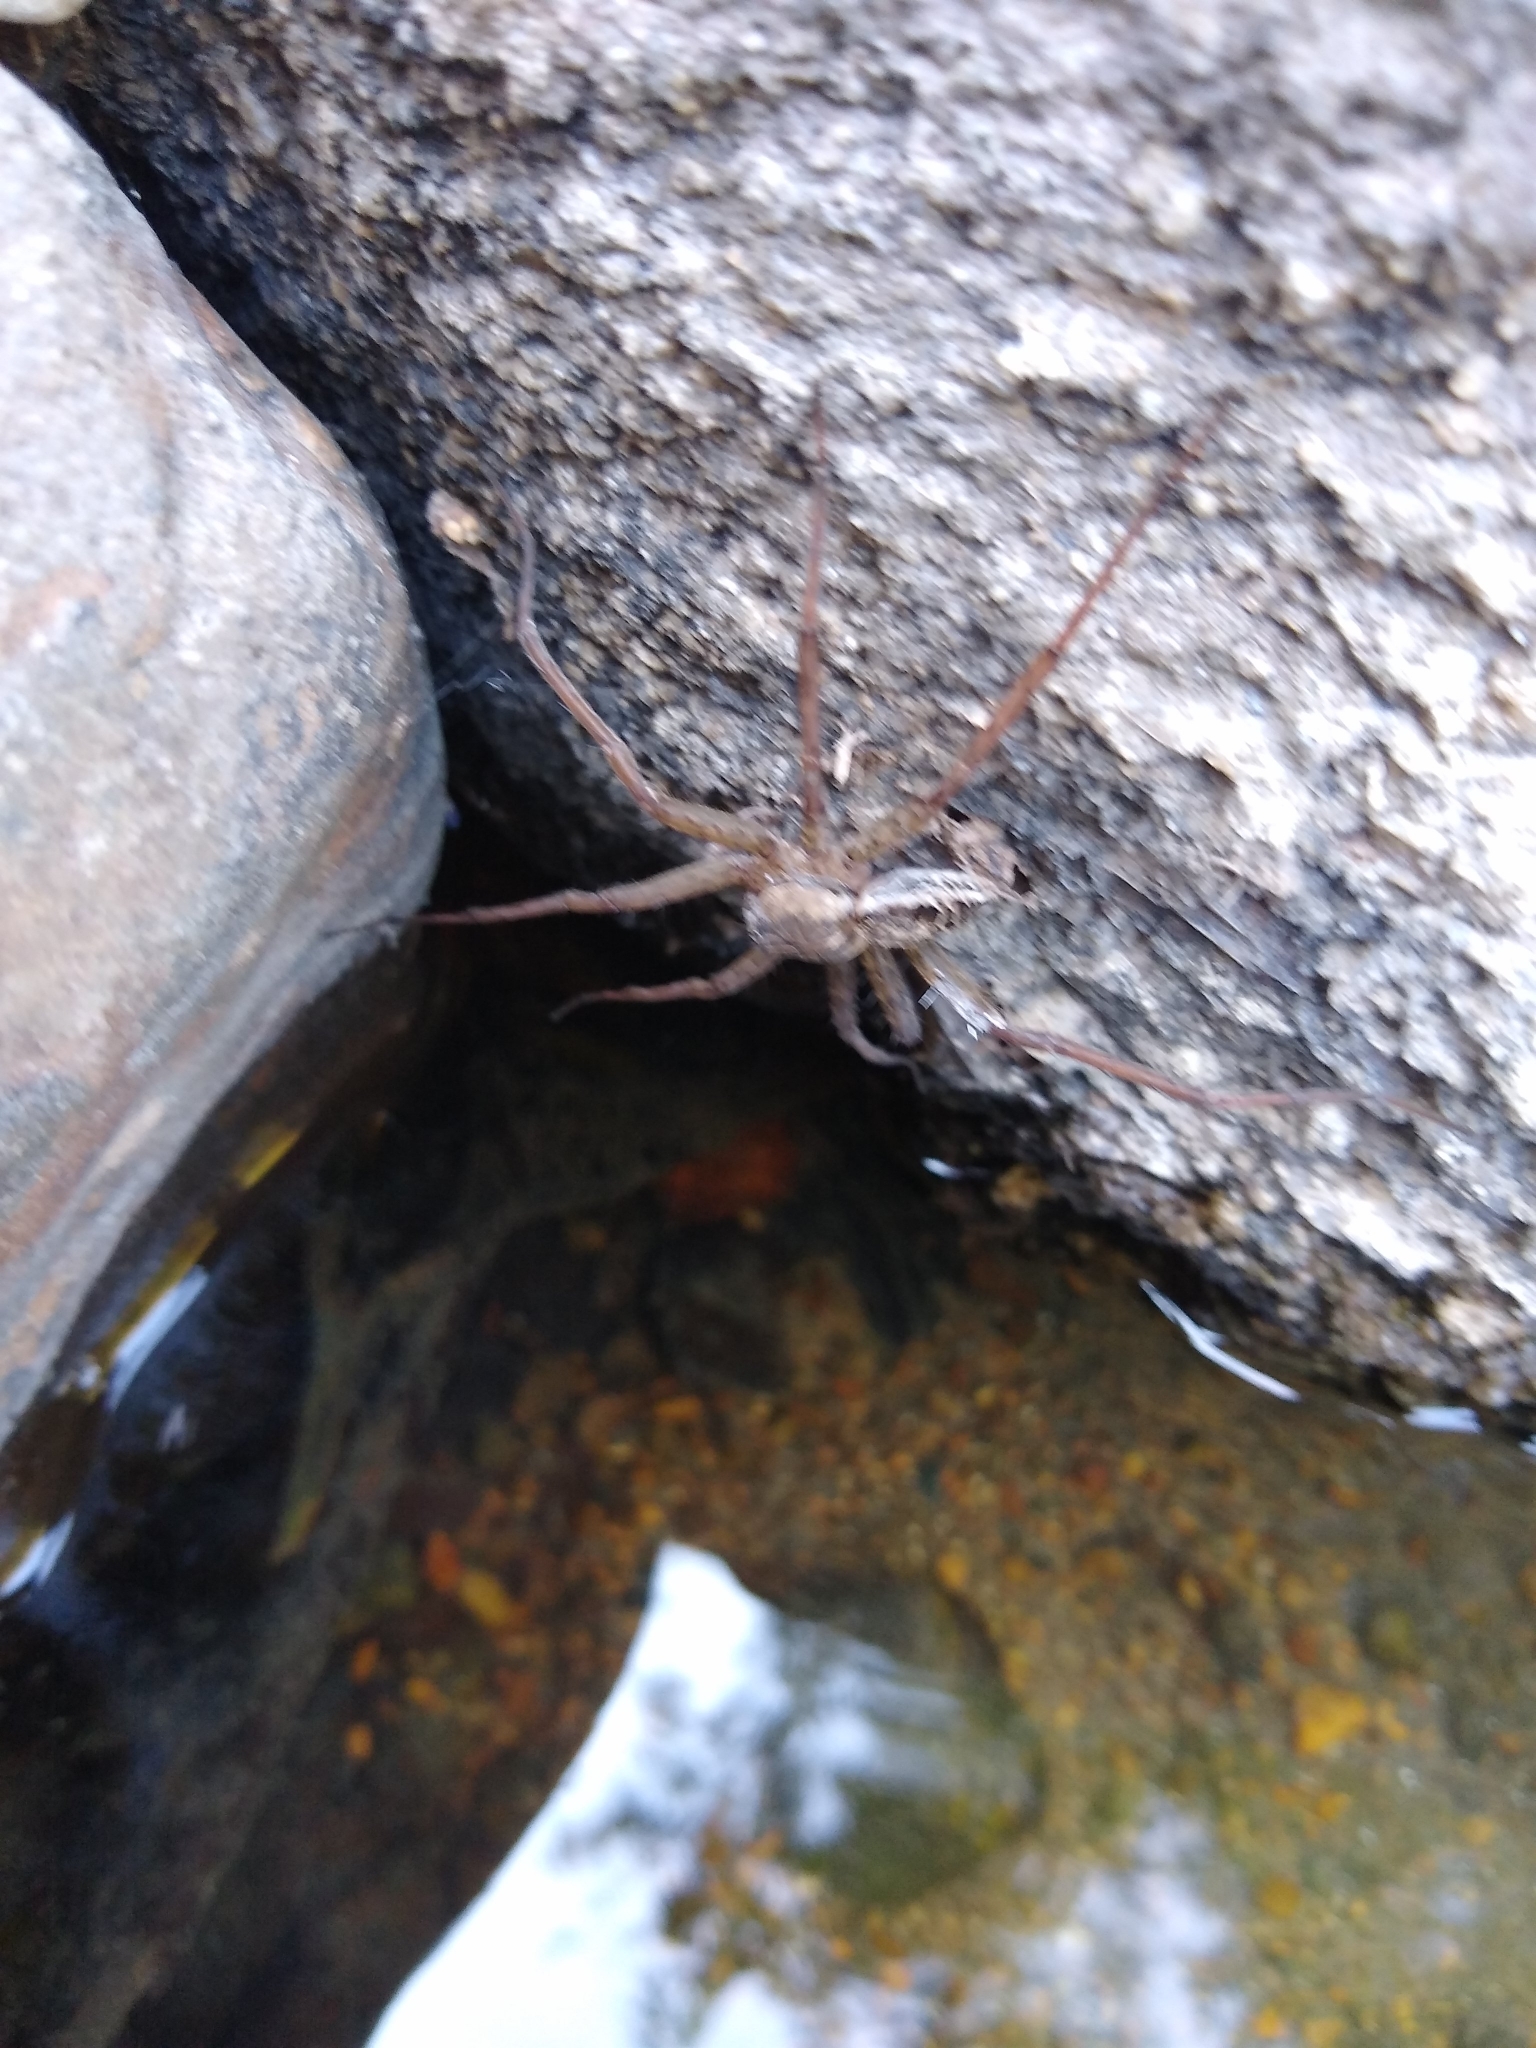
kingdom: Animalia
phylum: Arthropoda
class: Arachnida
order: Araneae
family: Pisauridae
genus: Dolomedes
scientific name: Dolomedes scriptus
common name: Striped fishing spider
